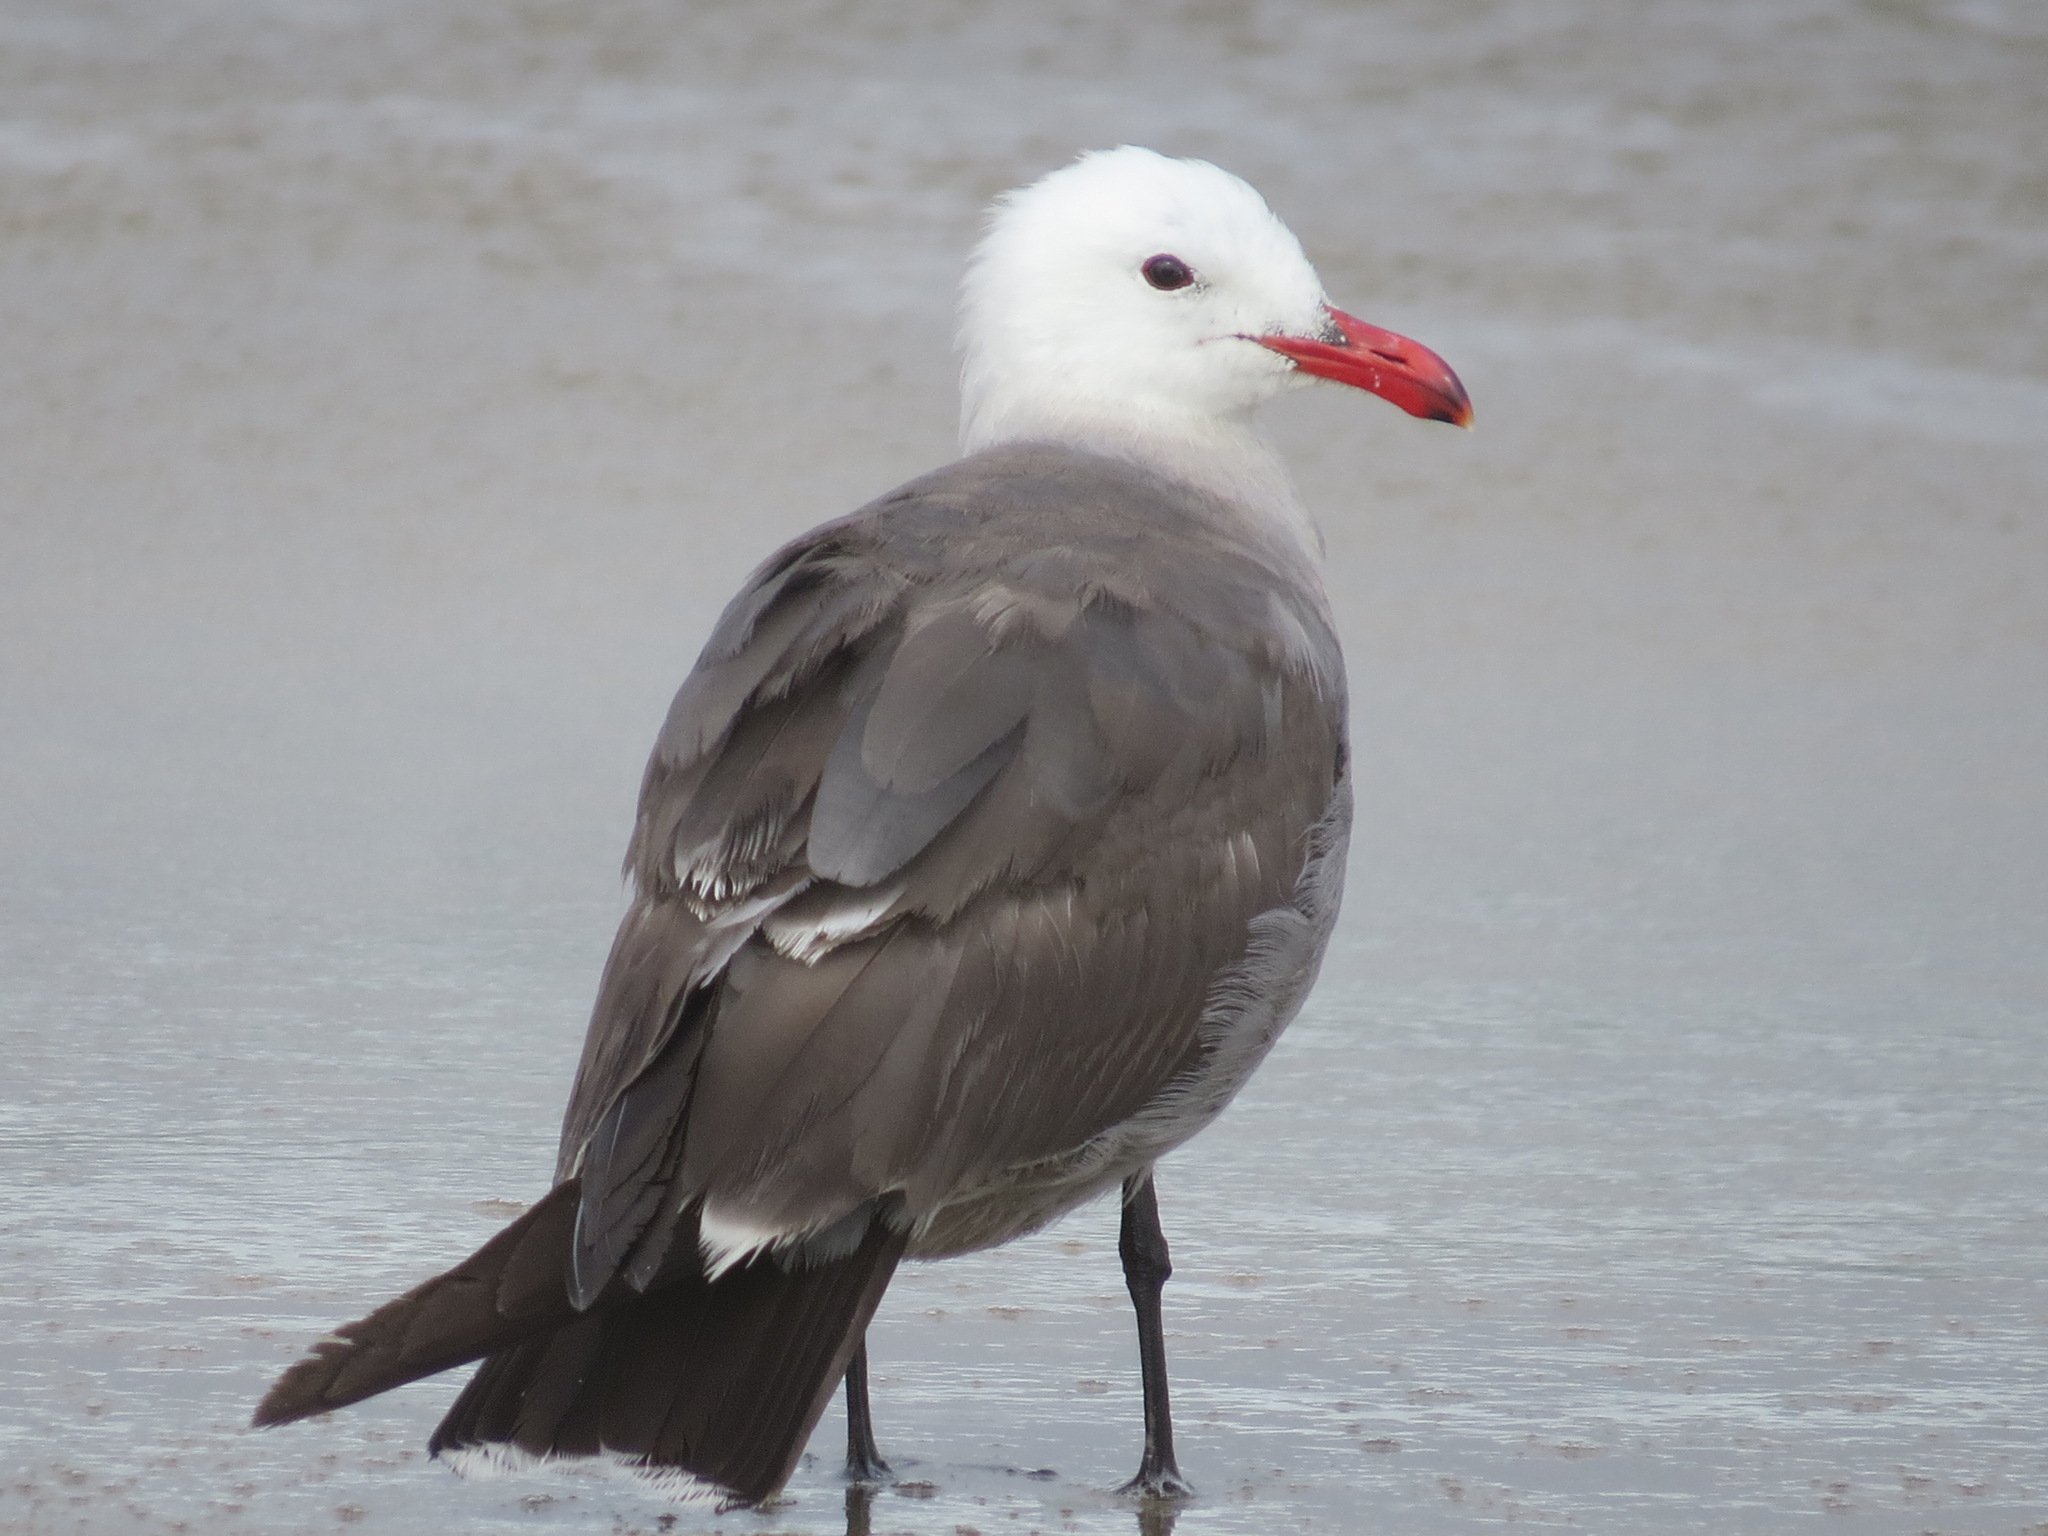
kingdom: Animalia
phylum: Chordata
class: Aves
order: Charadriiformes
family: Laridae
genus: Larus
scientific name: Larus heermanni
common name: Heermann's gull
